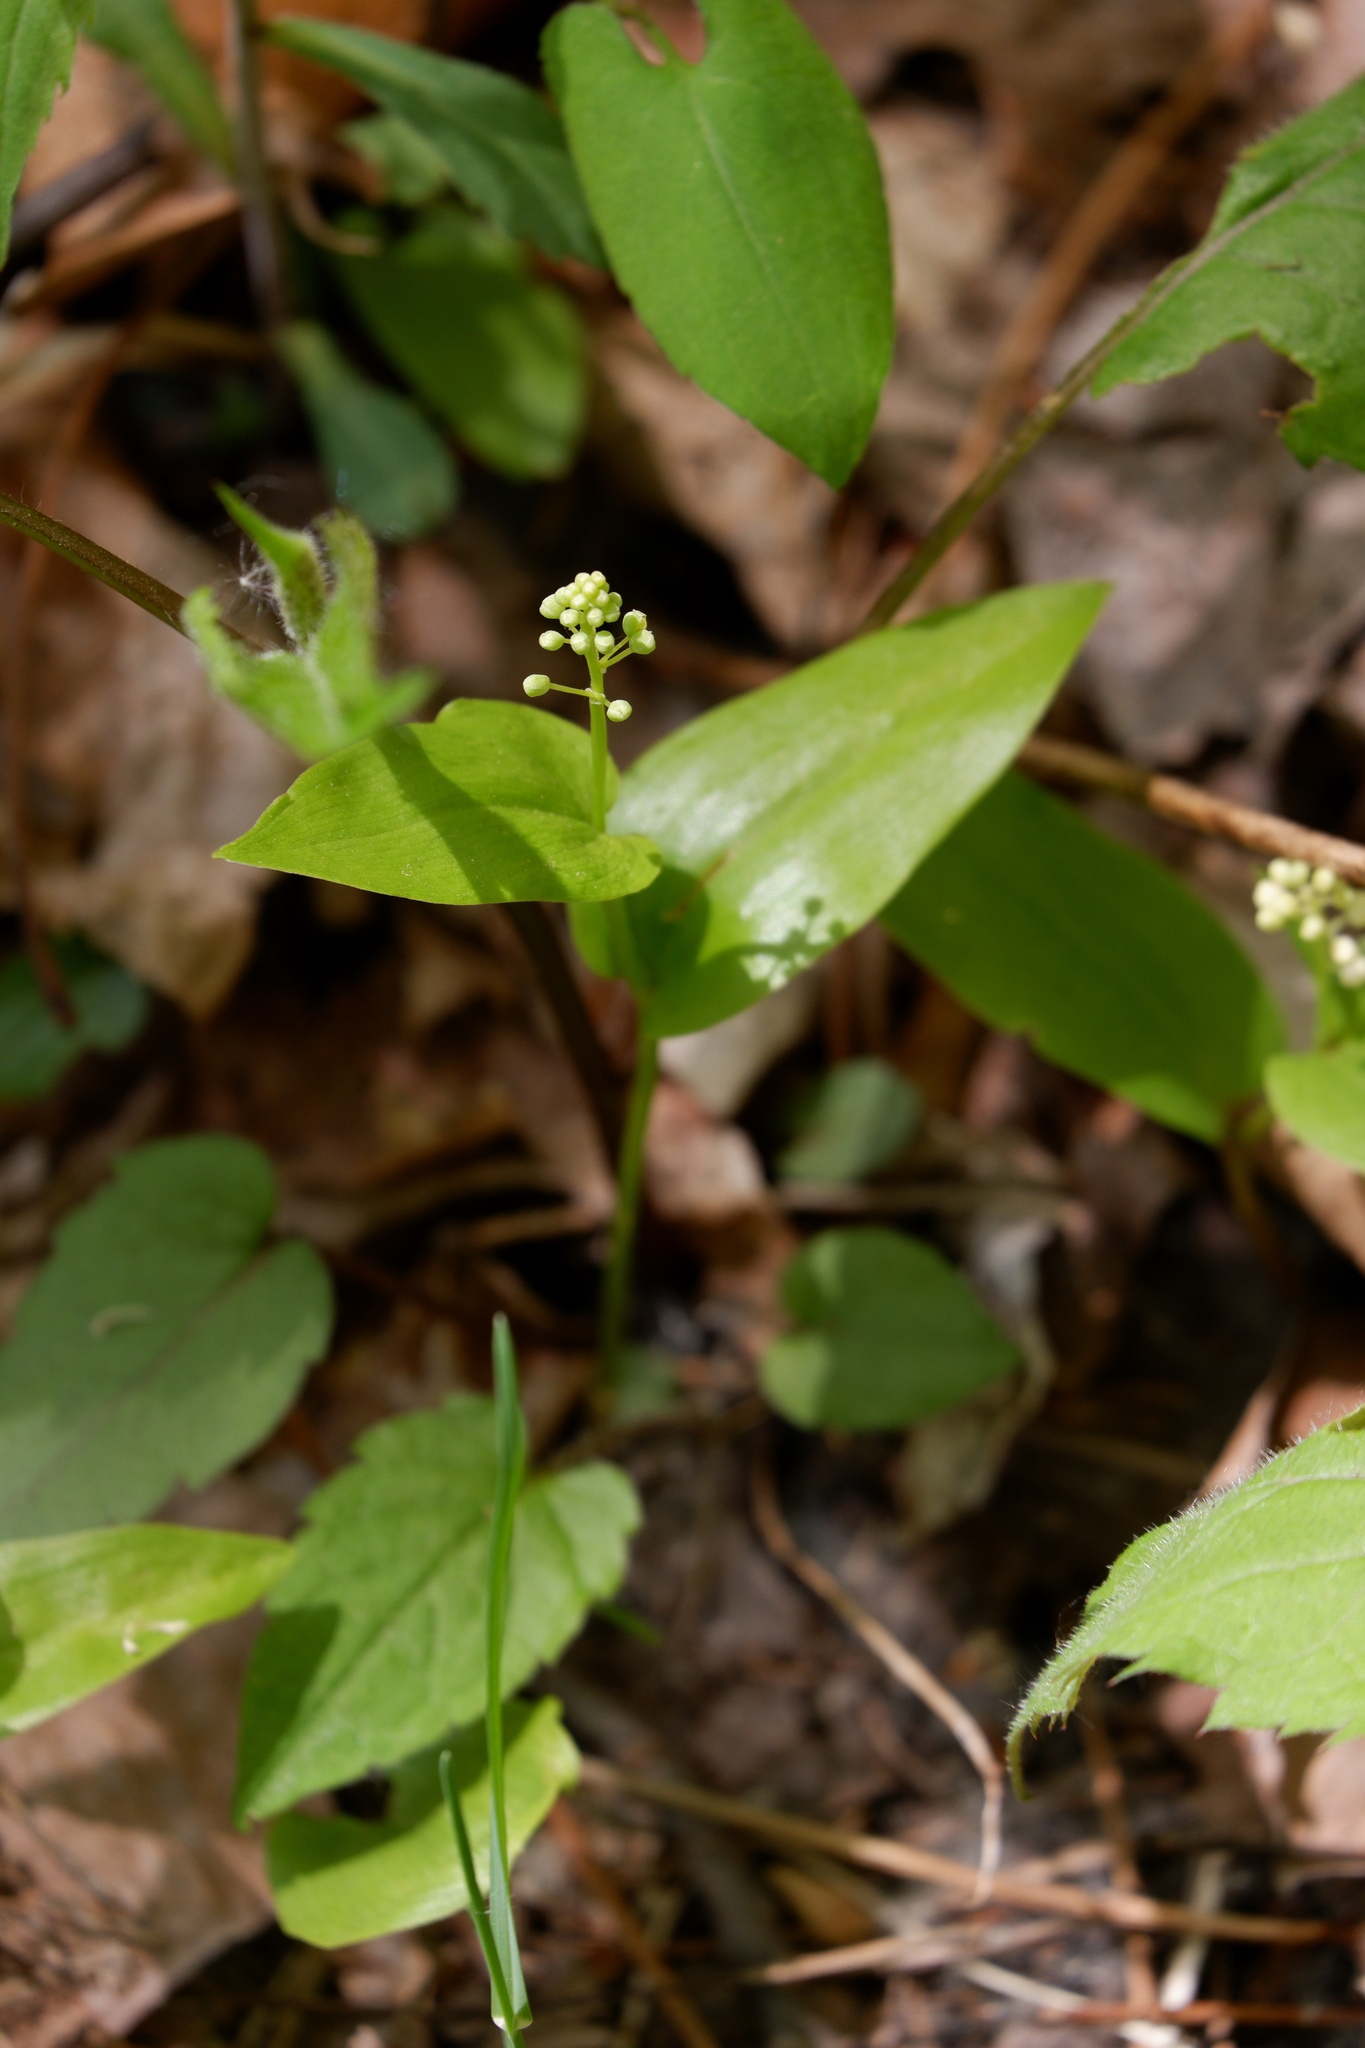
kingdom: Plantae
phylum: Tracheophyta
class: Liliopsida
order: Asparagales
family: Asparagaceae
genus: Maianthemum
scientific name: Maianthemum canadense
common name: False lily-of-the-valley
